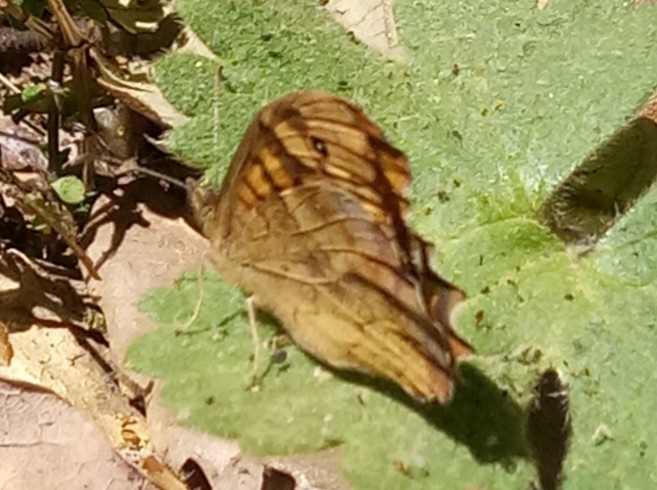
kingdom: Animalia
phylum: Arthropoda
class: Insecta
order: Lepidoptera
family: Nymphalidae
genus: Pararge
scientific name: Pararge aegeria
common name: Speckled wood
